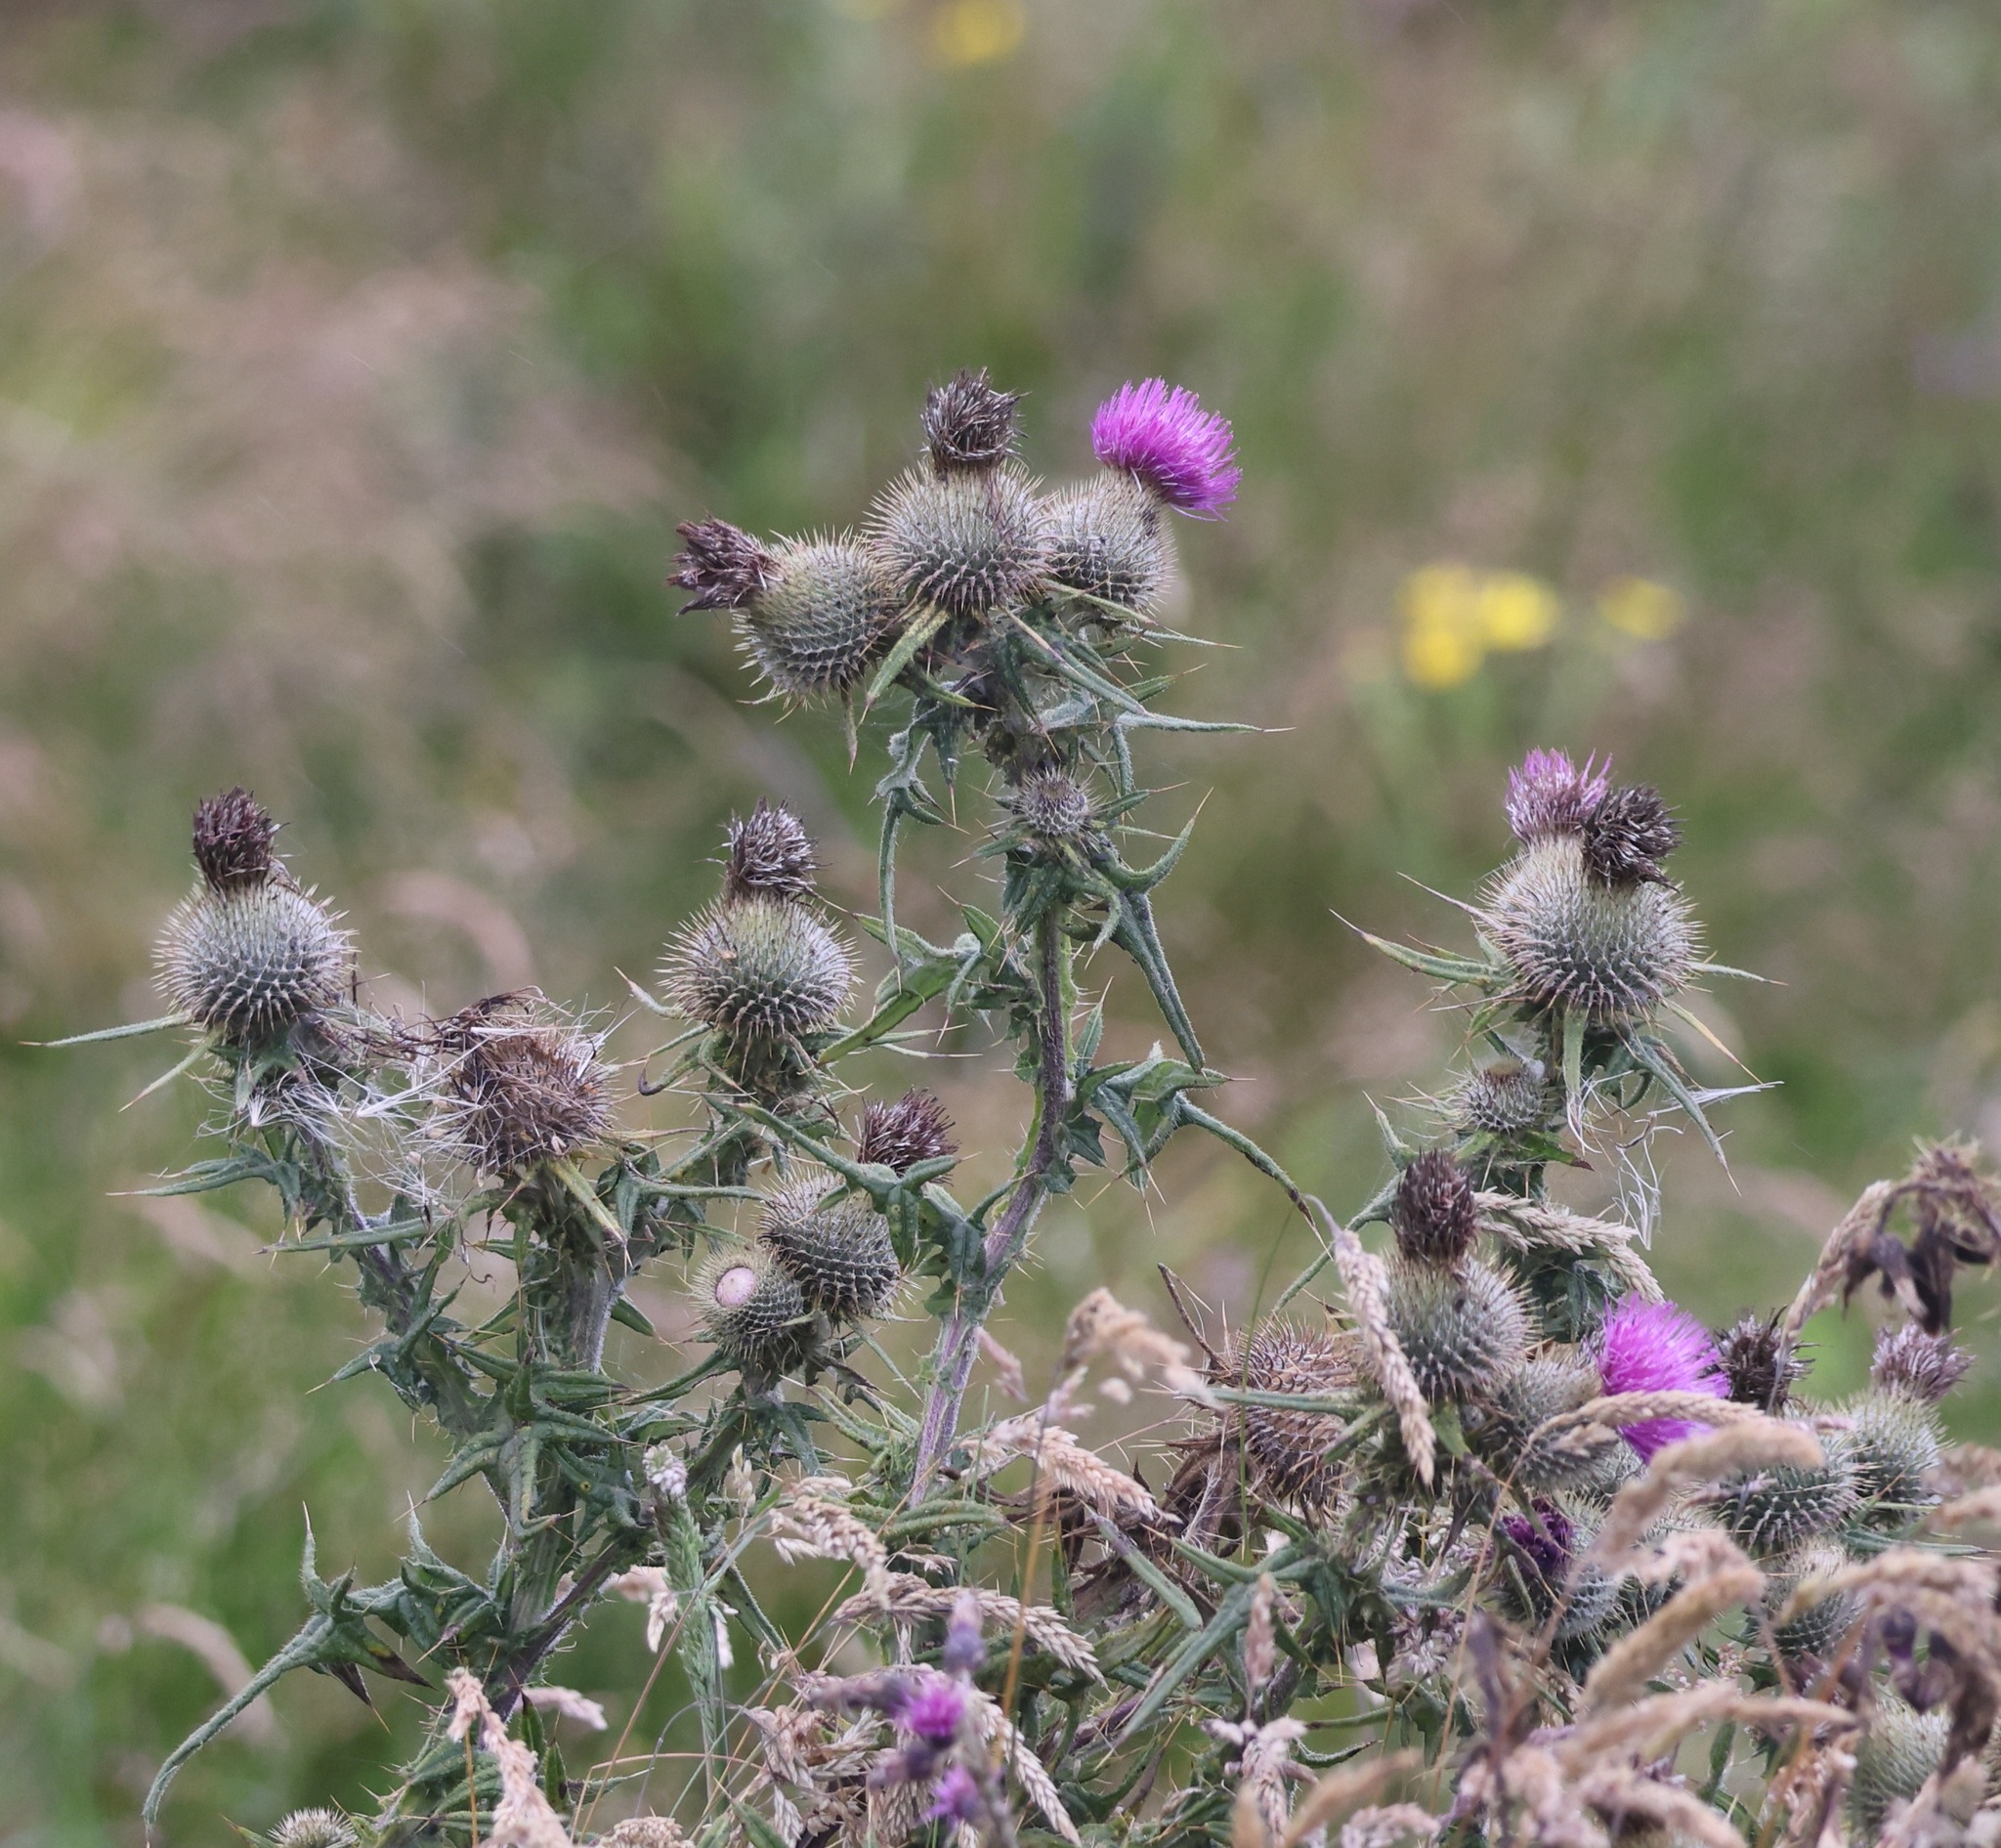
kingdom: Plantae
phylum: Tracheophyta
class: Magnoliopsida
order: Asterales
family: Asteraceae
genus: Cirsium
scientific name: Cirsium vulgare
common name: Bull thistle
